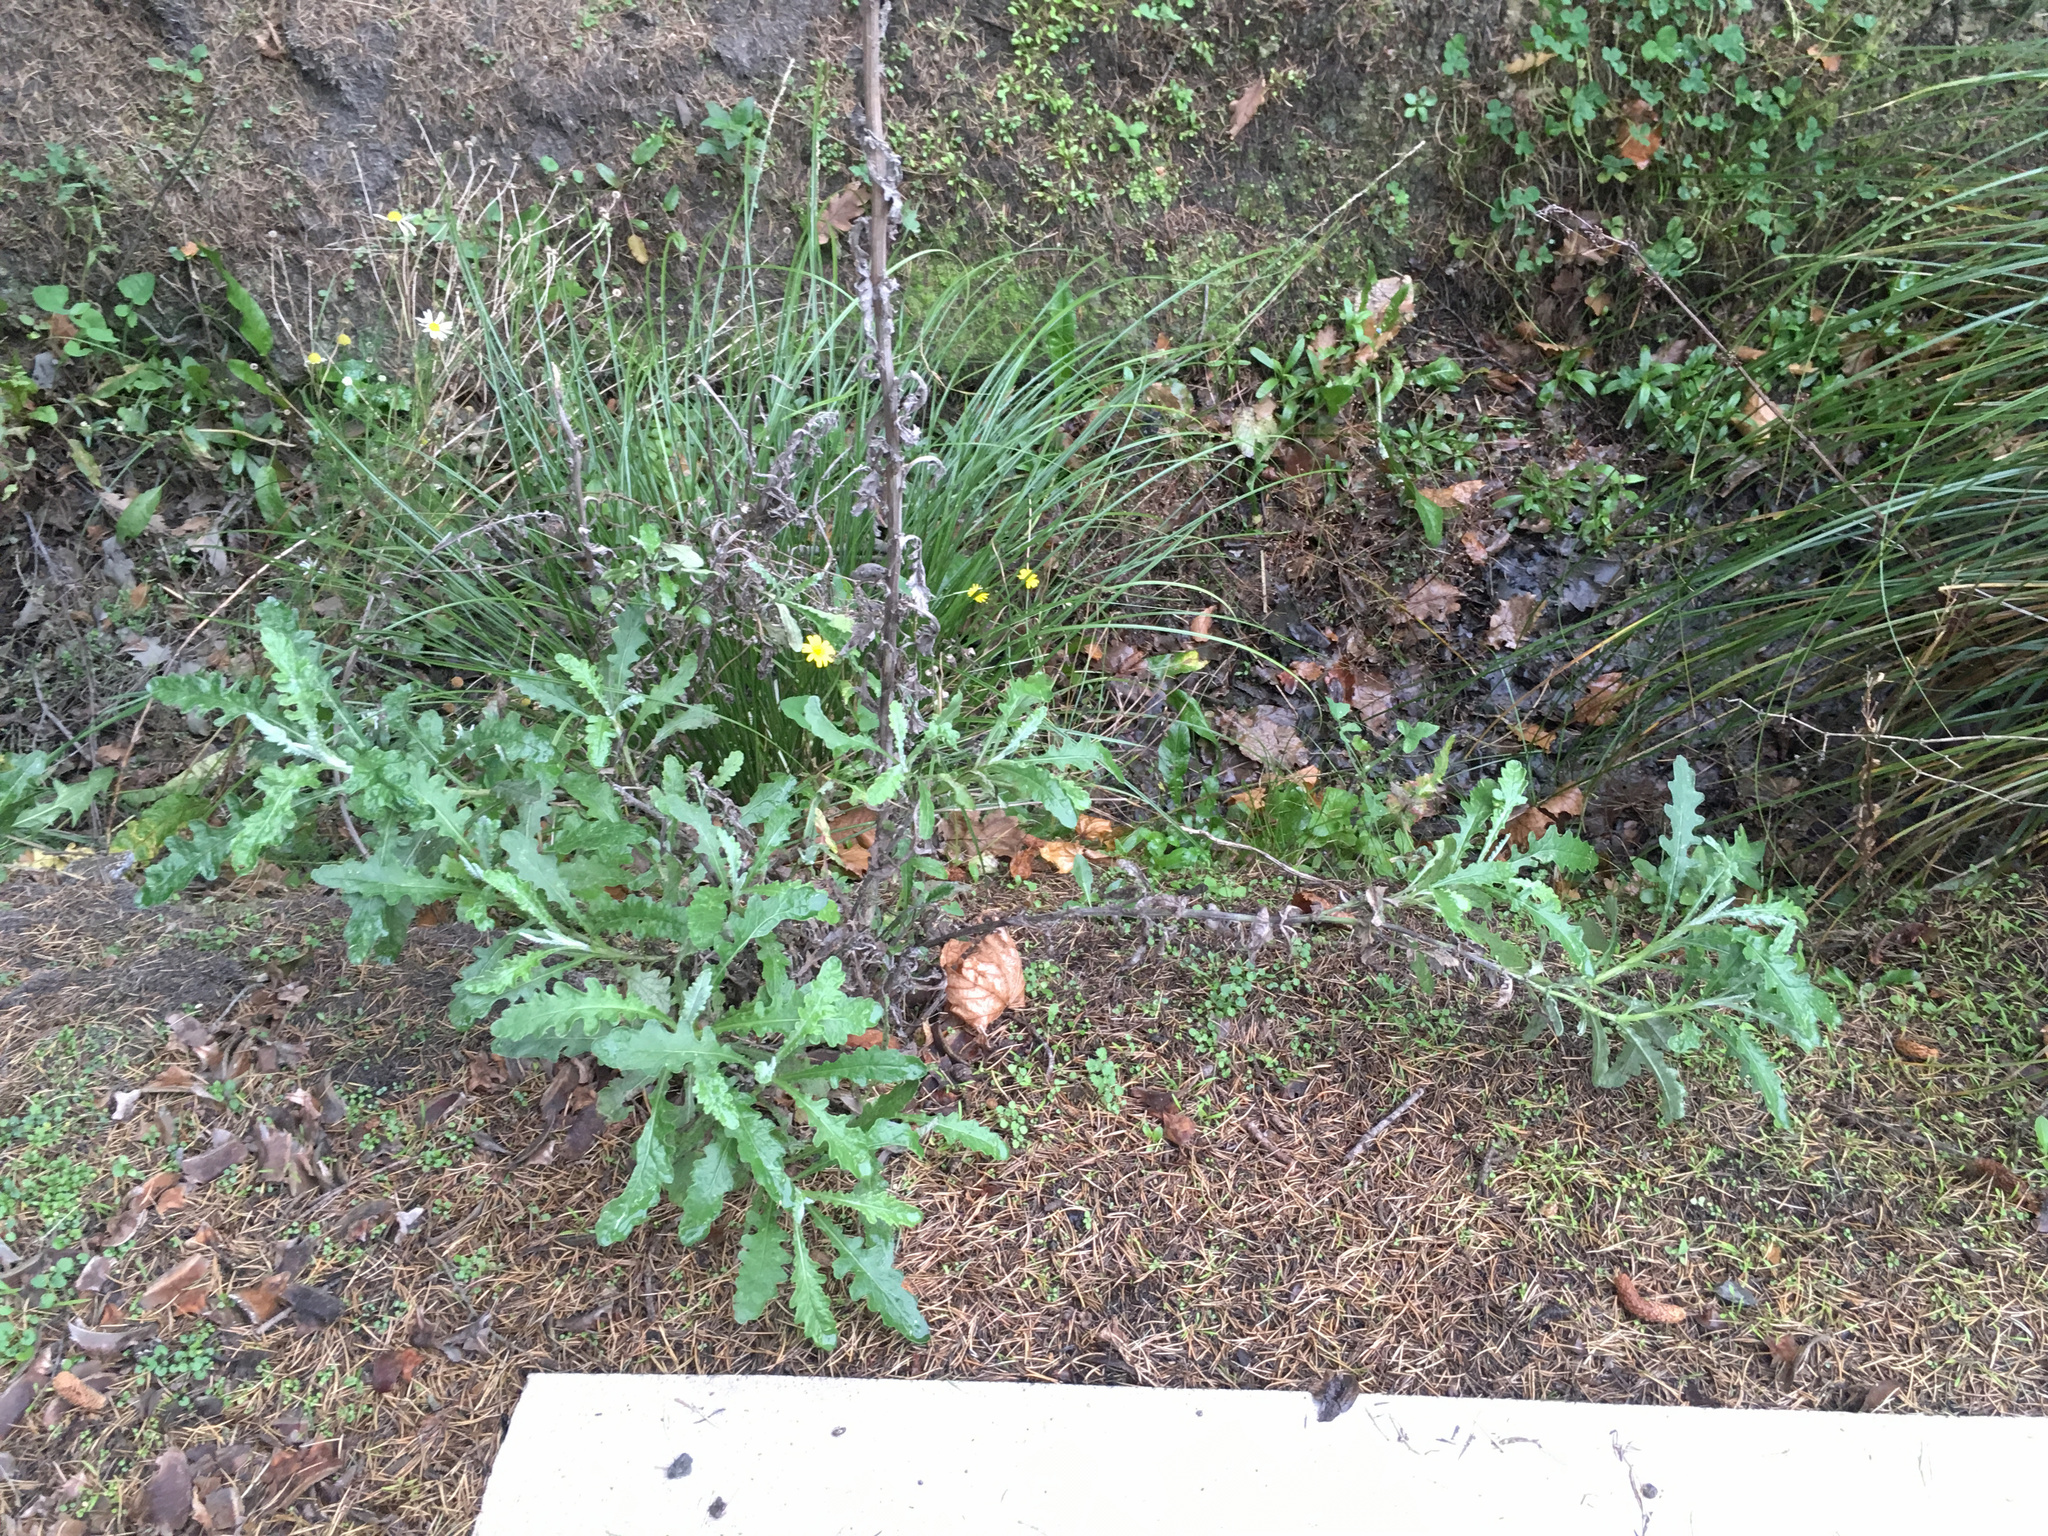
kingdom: Plantae
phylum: Tracheophyta
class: Magnoliopsida
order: Asterales
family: Asteraceae
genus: Senecio
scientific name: Senecio glomeratus
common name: Cutleaf burnweed
